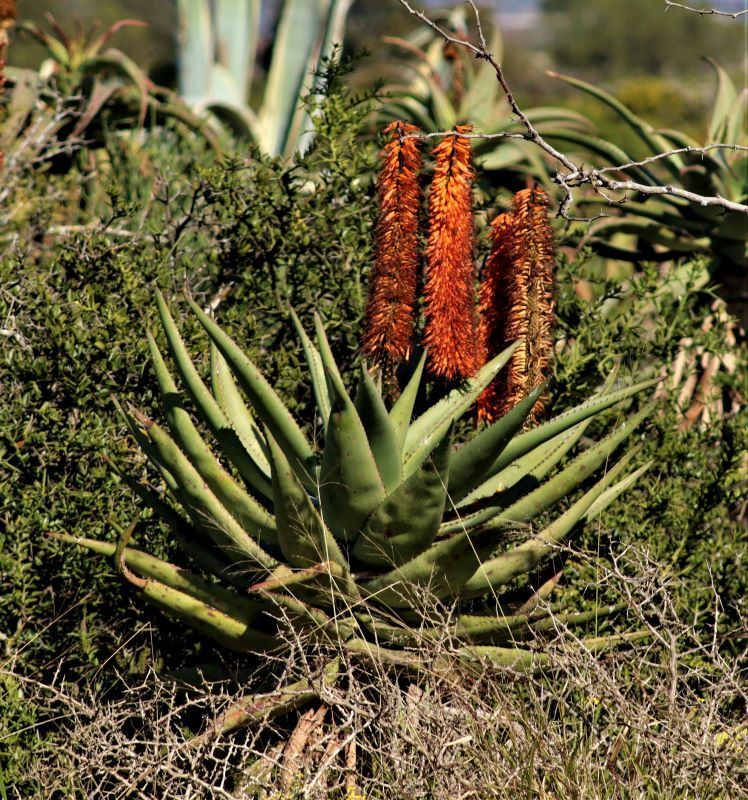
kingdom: Plantae
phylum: Tracheophyta
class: Liliopsida
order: Asparagales
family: Asphodelaceae
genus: Aloe
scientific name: Aloe ferox
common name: Bitter aloe
